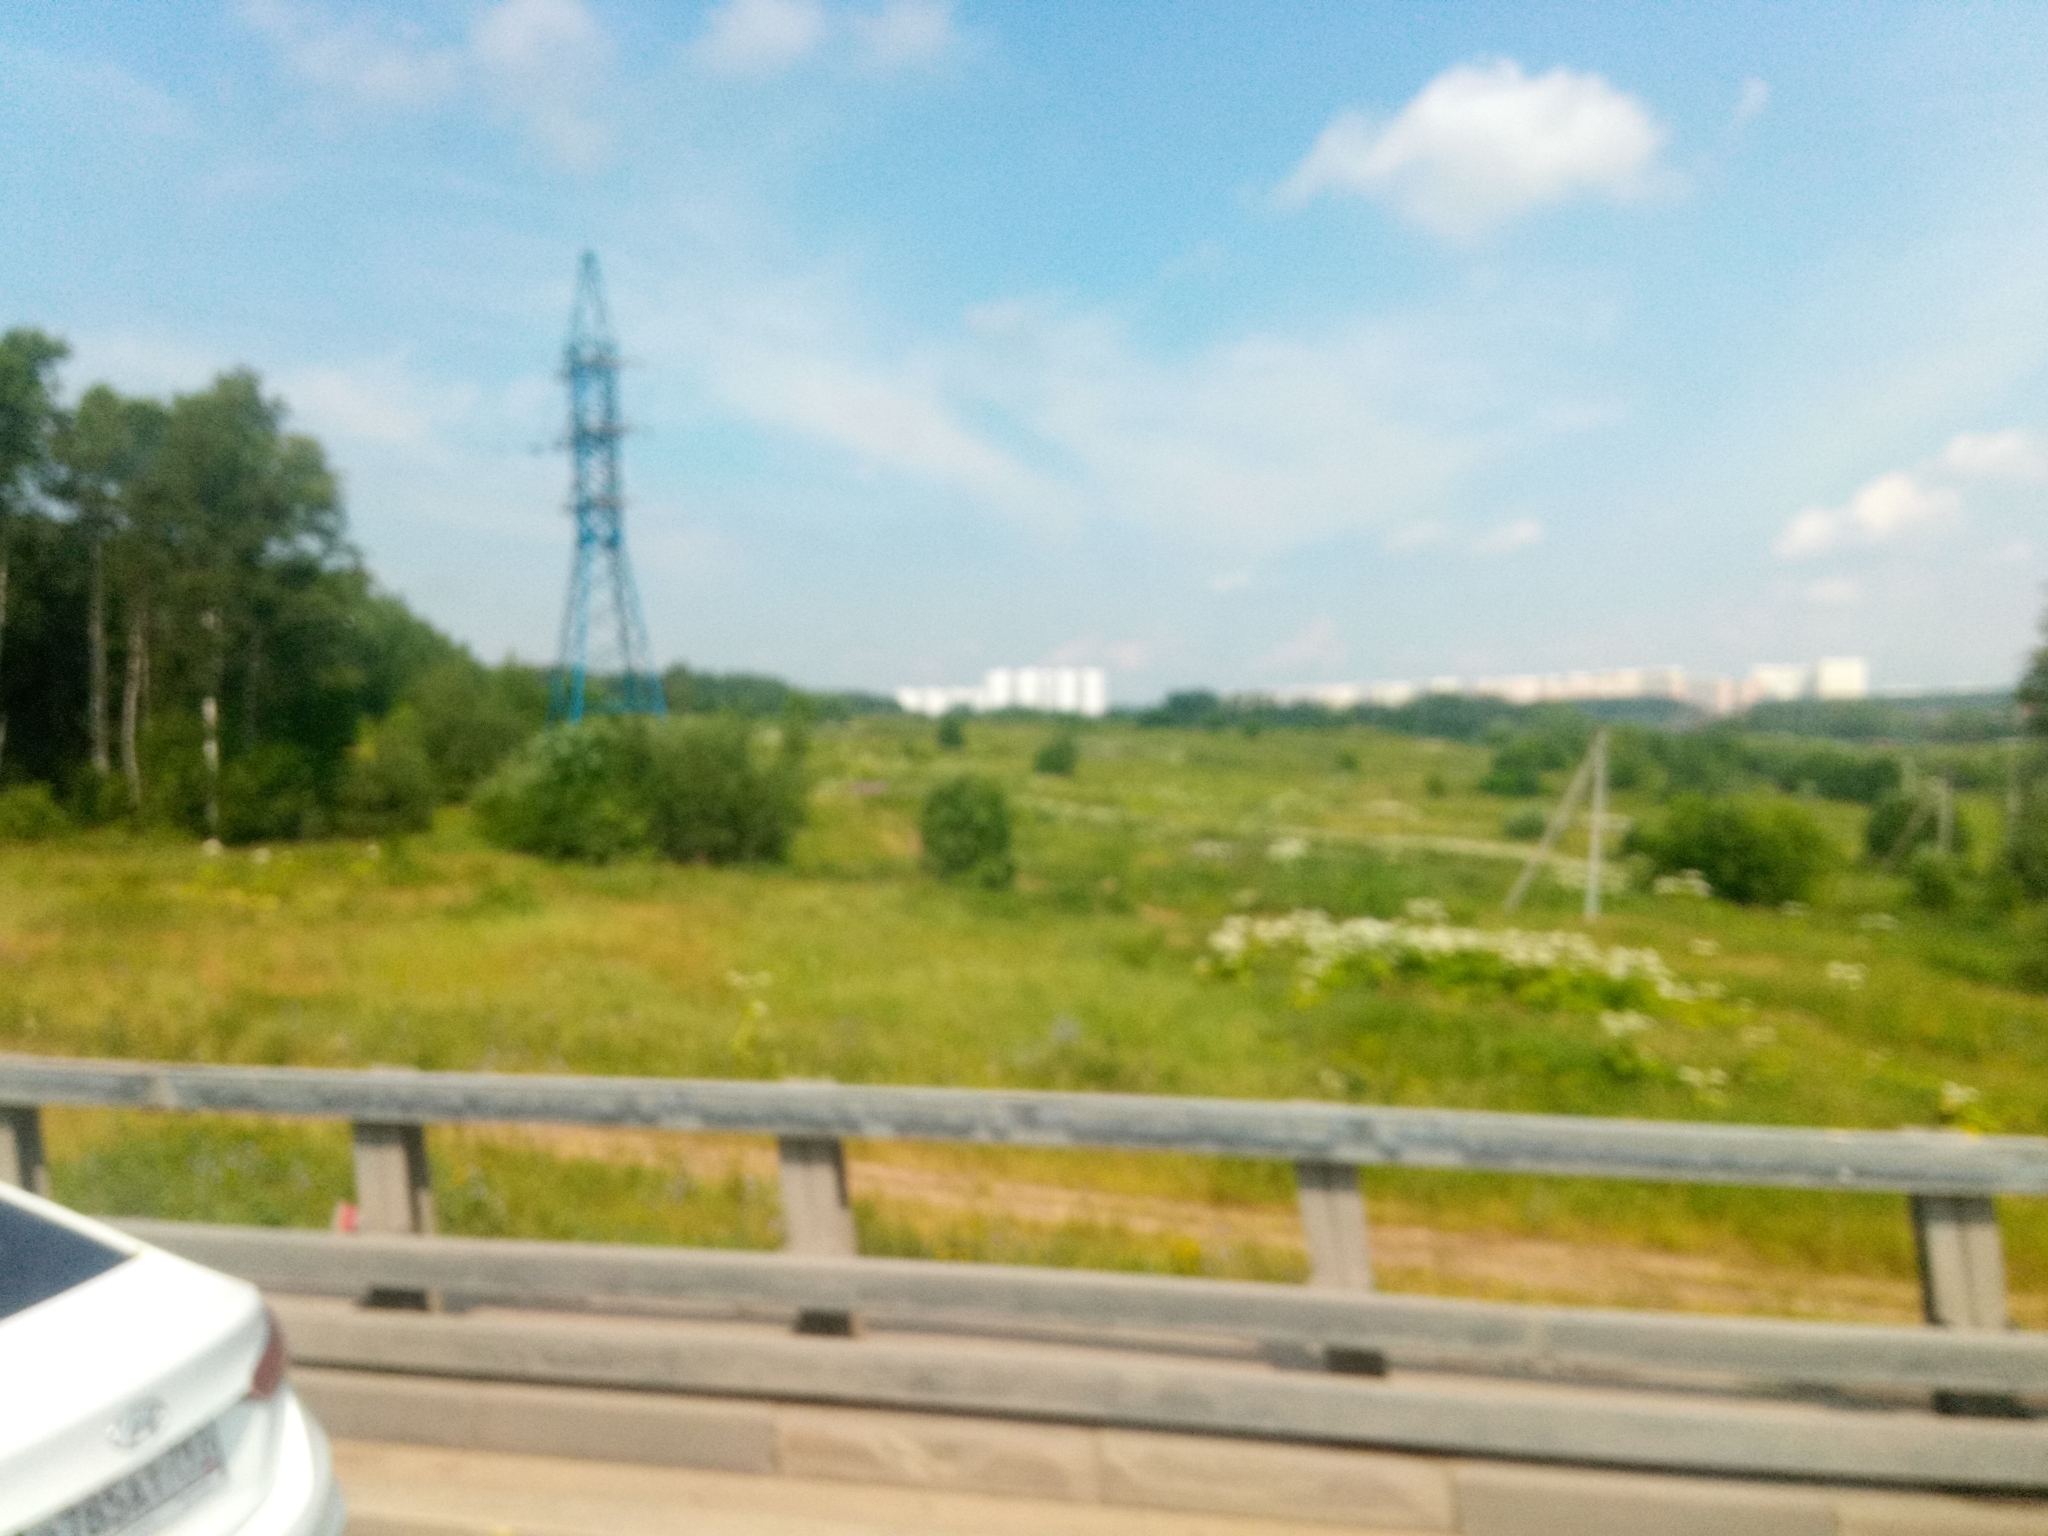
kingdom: Plantae
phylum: Tracheophyta
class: Magnoliopsida
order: Apiales
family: Apiaceae
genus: Heracleum
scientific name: Heracleum sosnowskyi
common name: Sosnowsky's hogweed
